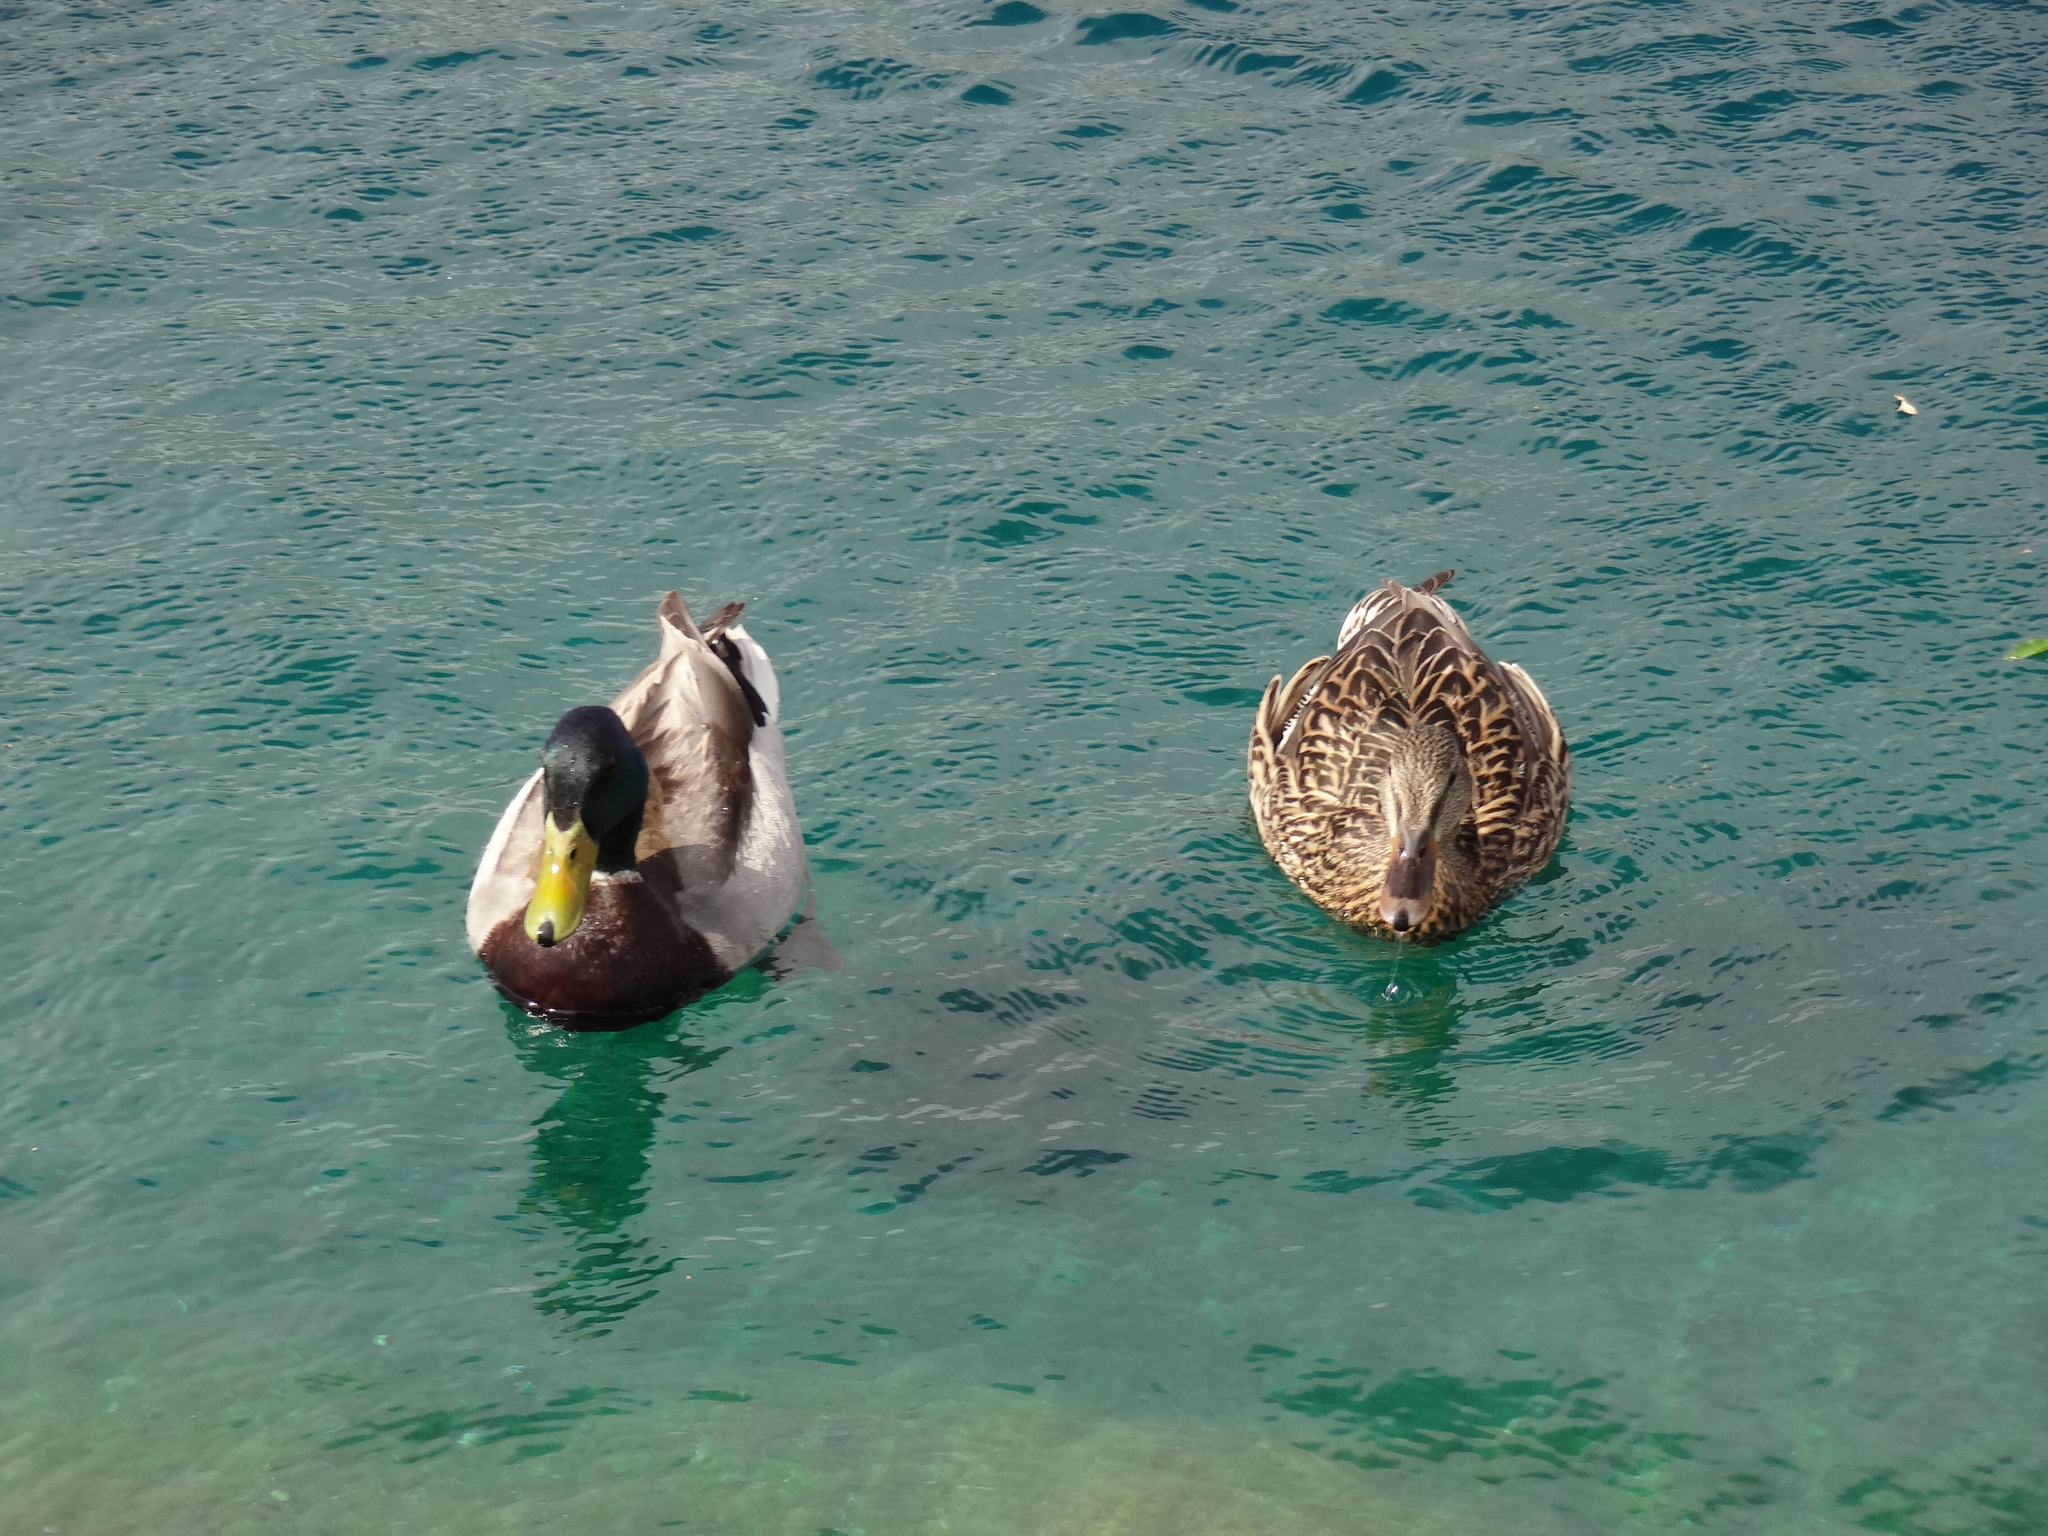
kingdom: Animalia
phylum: Chordata
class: Aves
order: Anseriformes
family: Anatidae
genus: Anas
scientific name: Anas platyrhynchos
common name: Mallard
